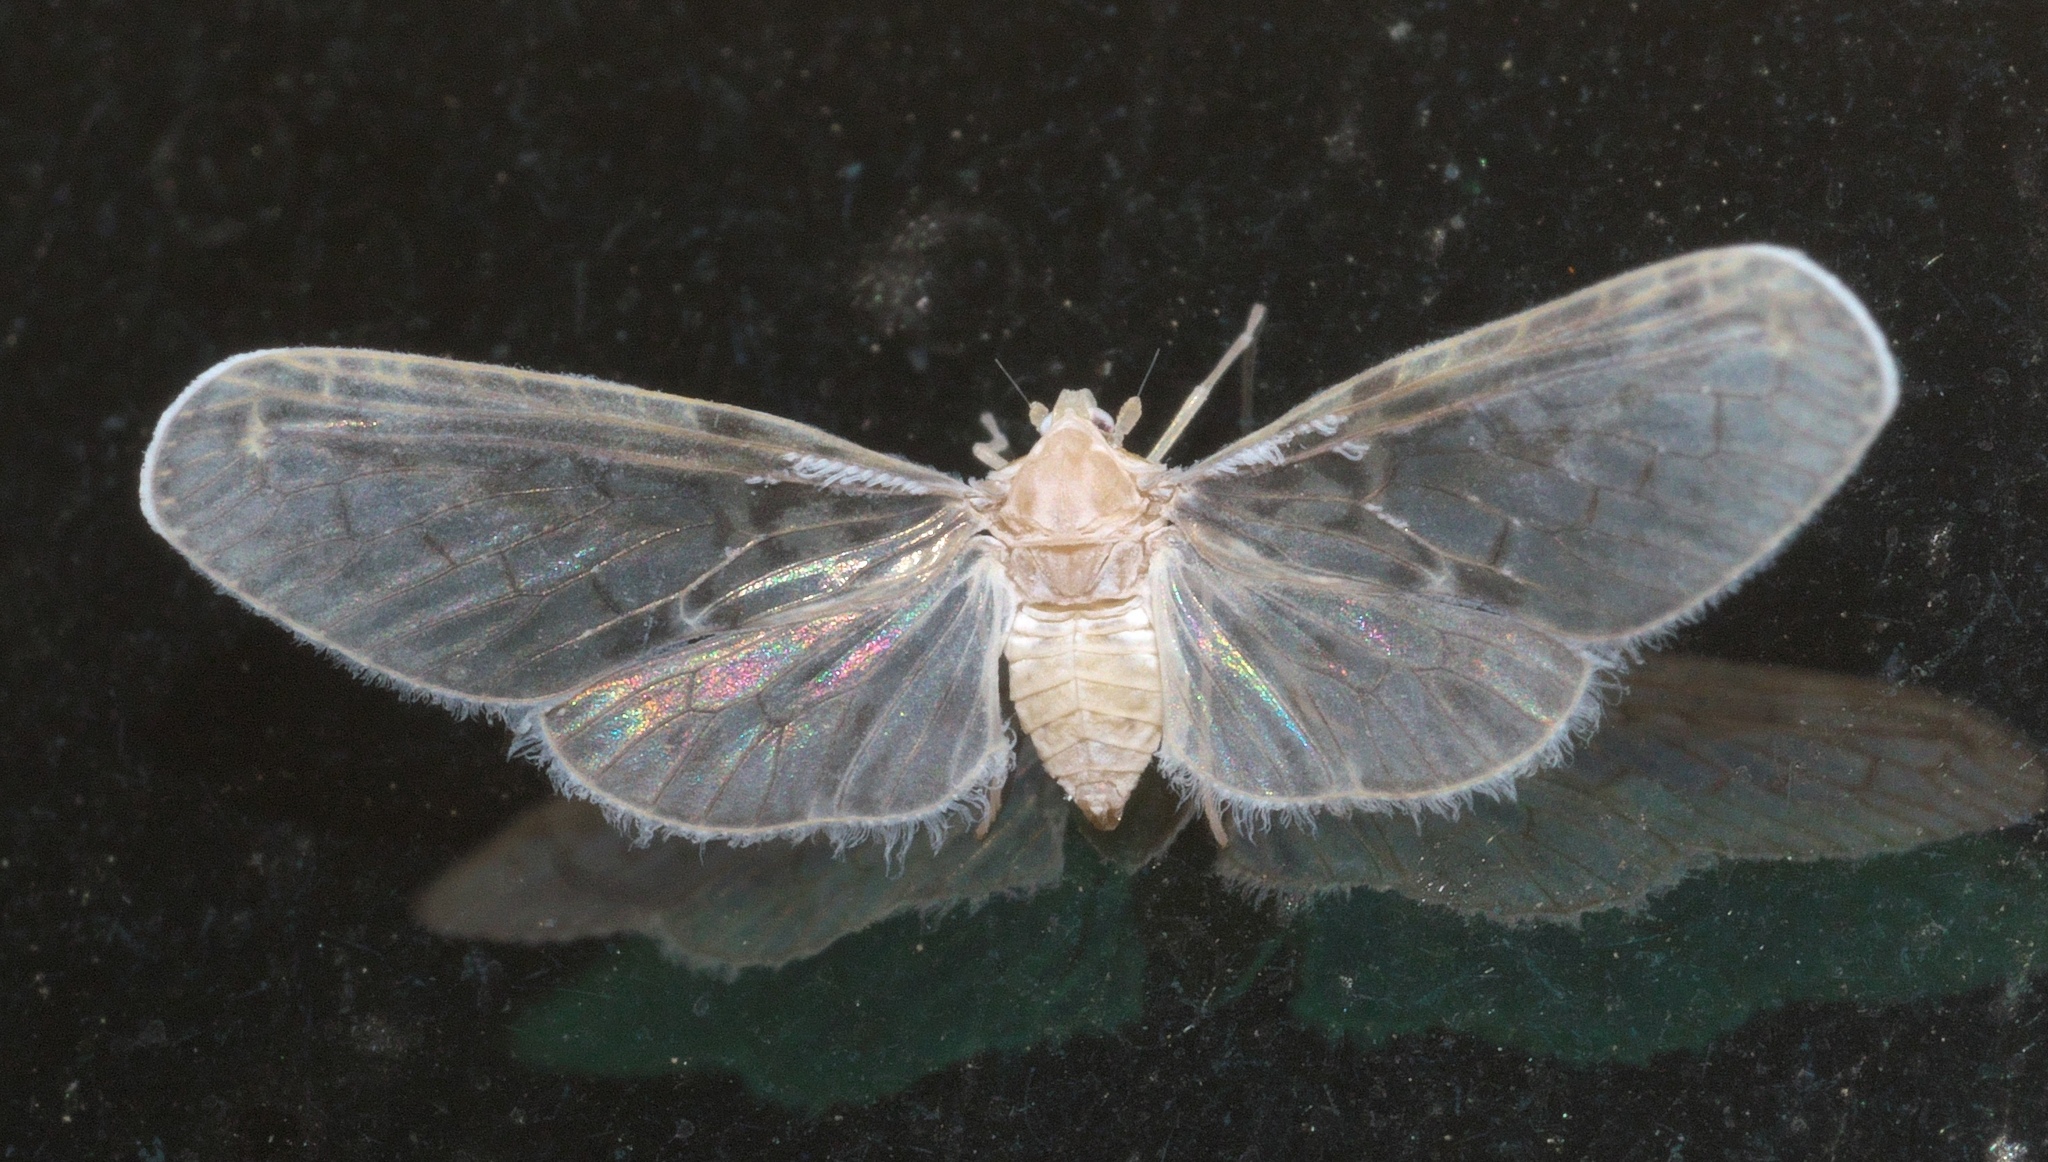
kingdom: Animalia
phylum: Arthropoda
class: Insecta
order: Hemiptera
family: Derbidae
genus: Paramysidia
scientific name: Paramysidia mississippiensis
